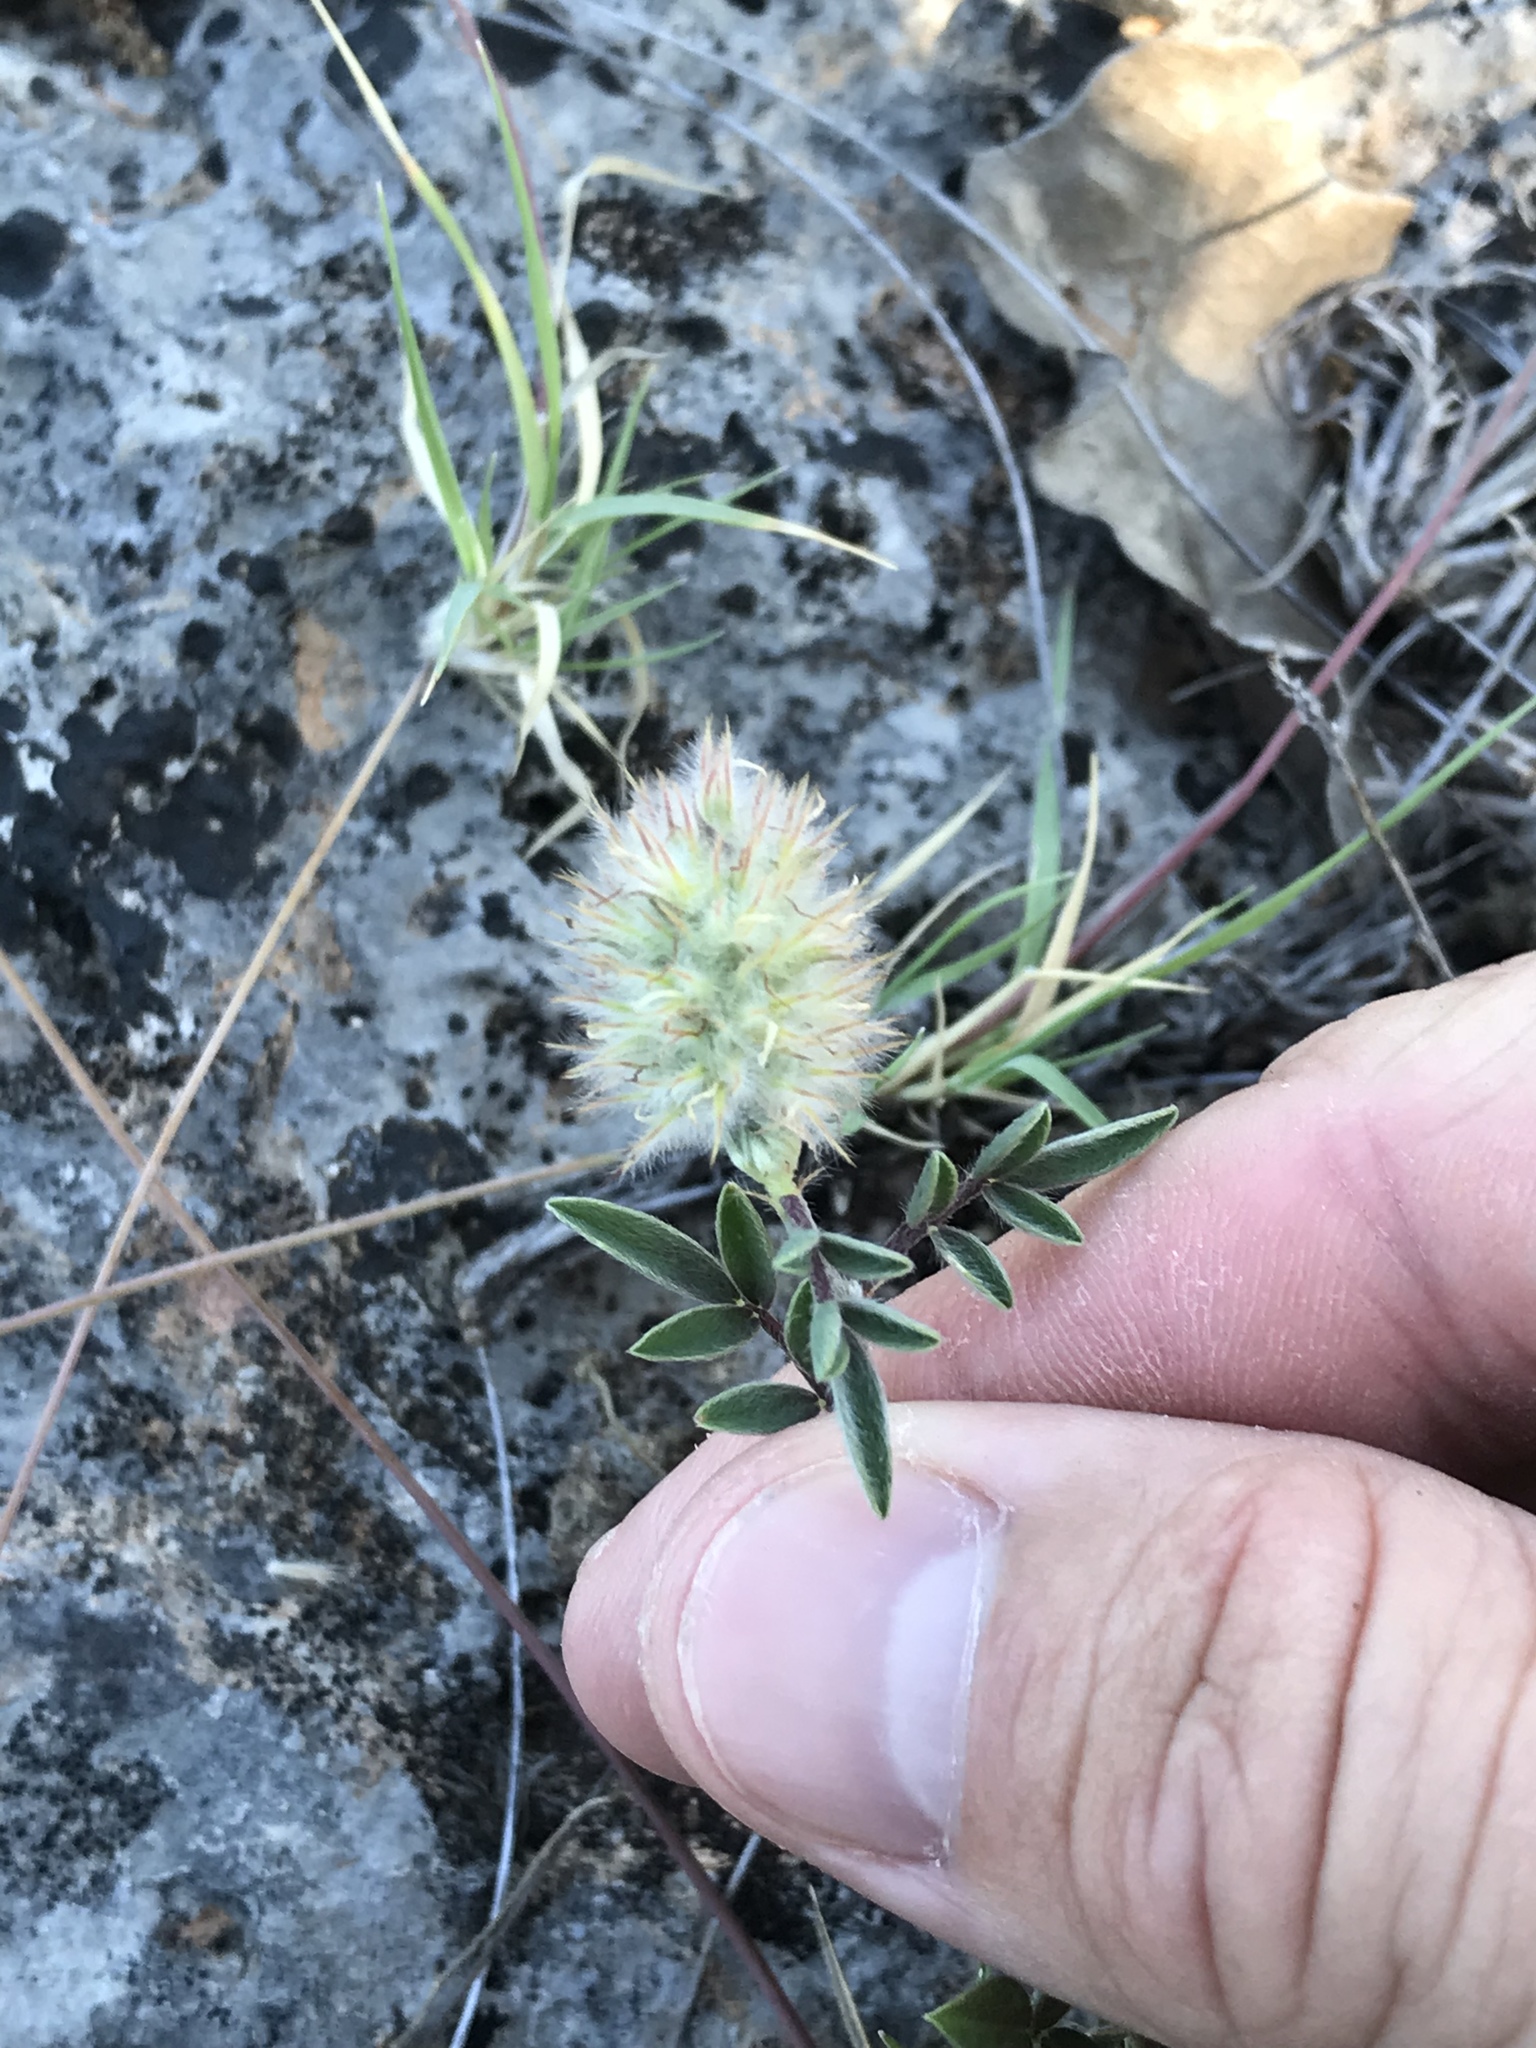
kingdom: Plantae
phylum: Tracheophyta
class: Magnoliopsida
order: Fabales
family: Fabaceae
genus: Dalea
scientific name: Dalea nana
